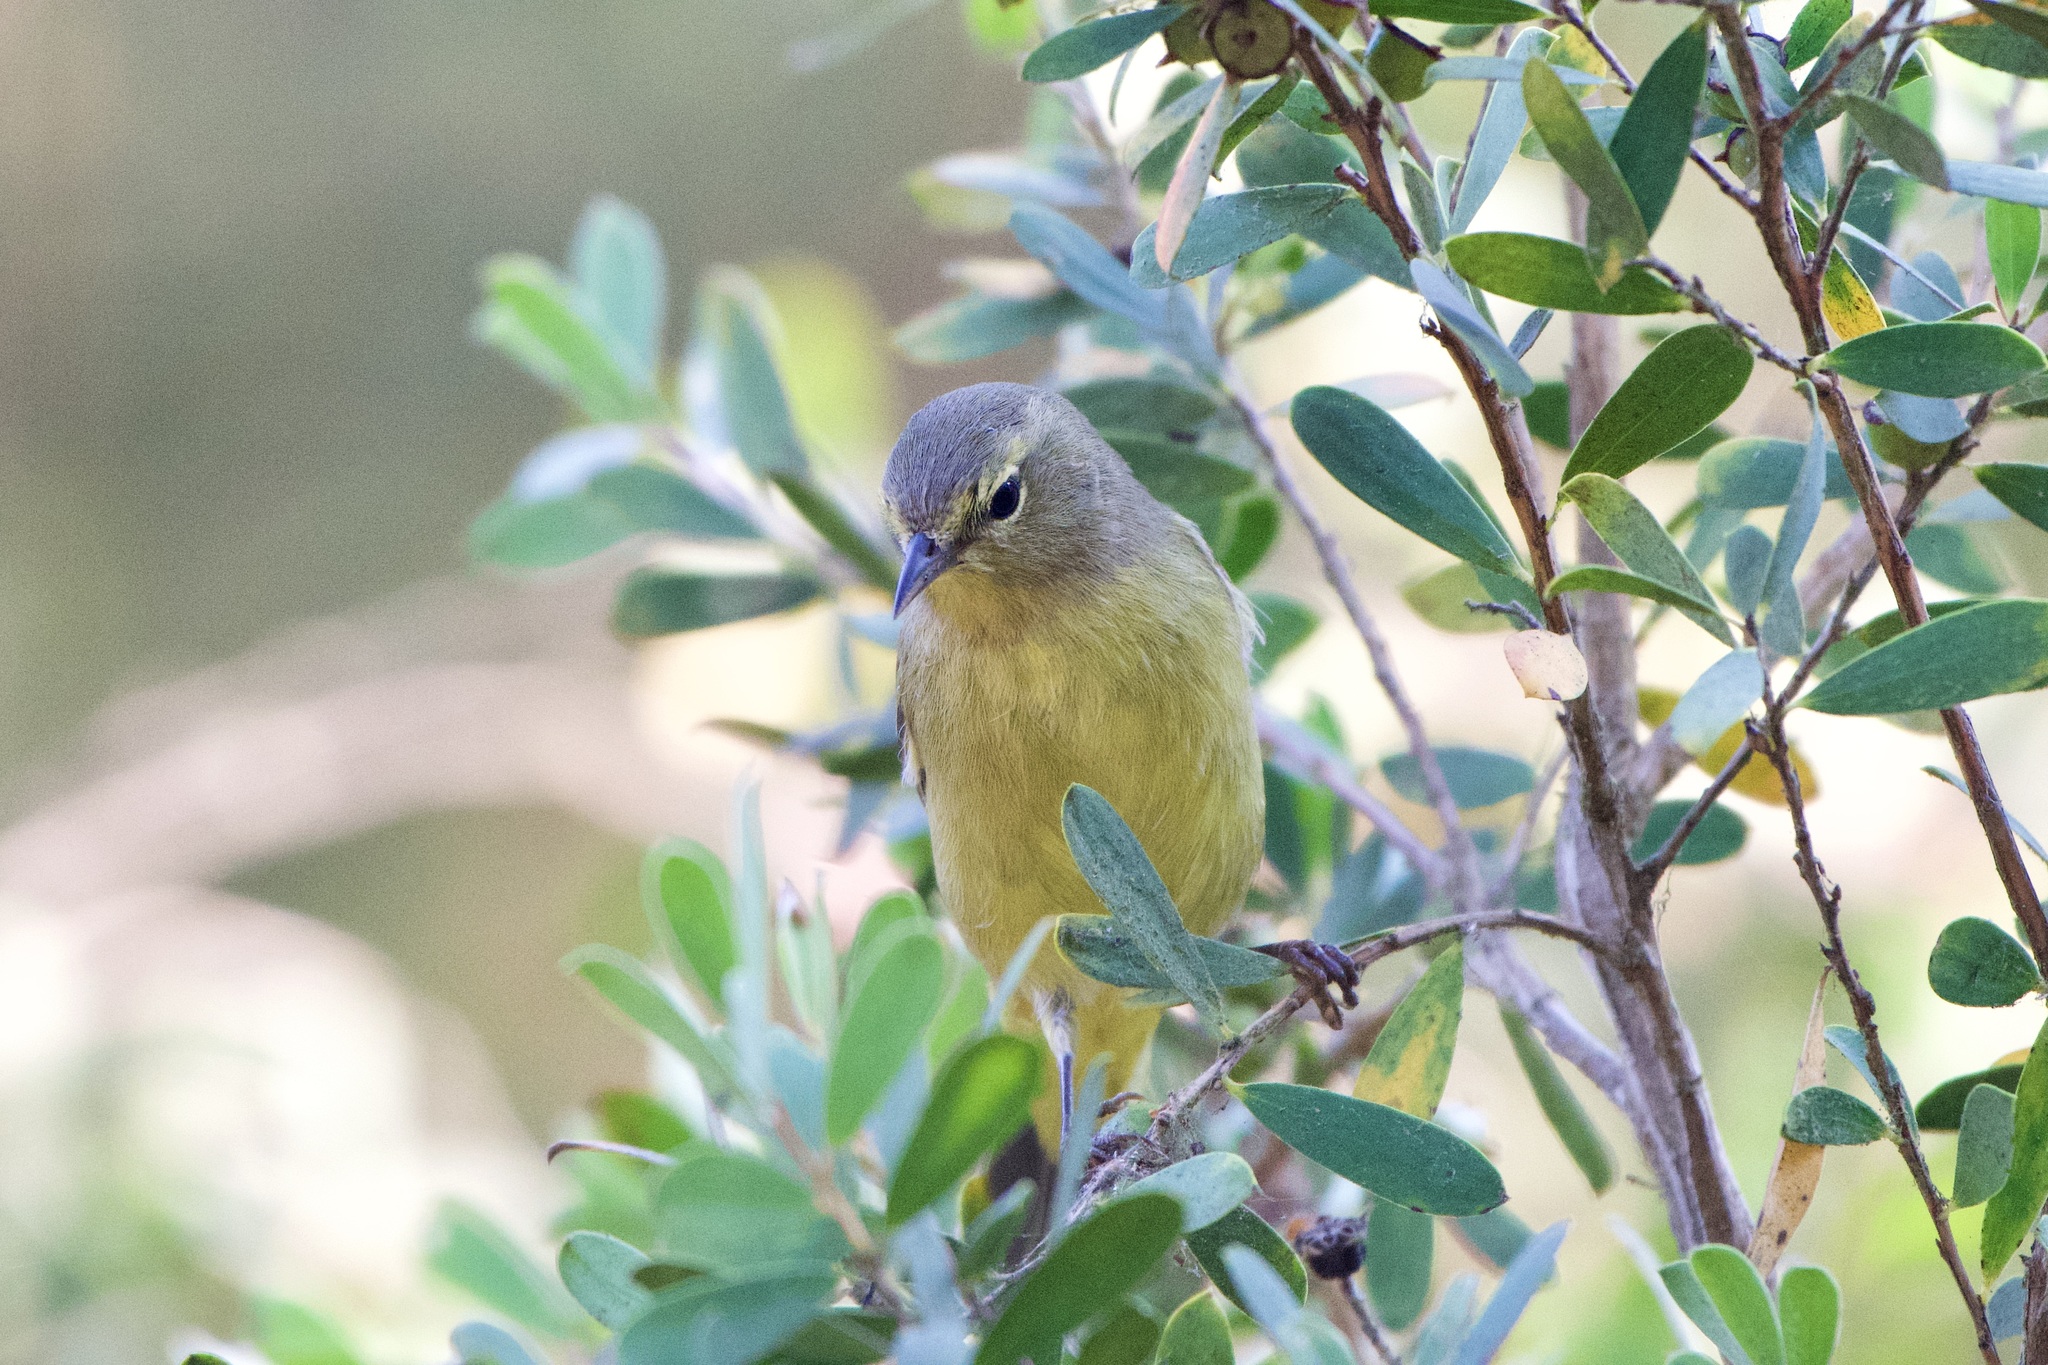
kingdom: Animalia
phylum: Chordata
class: Aves
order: Passeriformes
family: Parulidae
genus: Leiothlypis
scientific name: Leiothlypis celata
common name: Orange-crowned warbler
